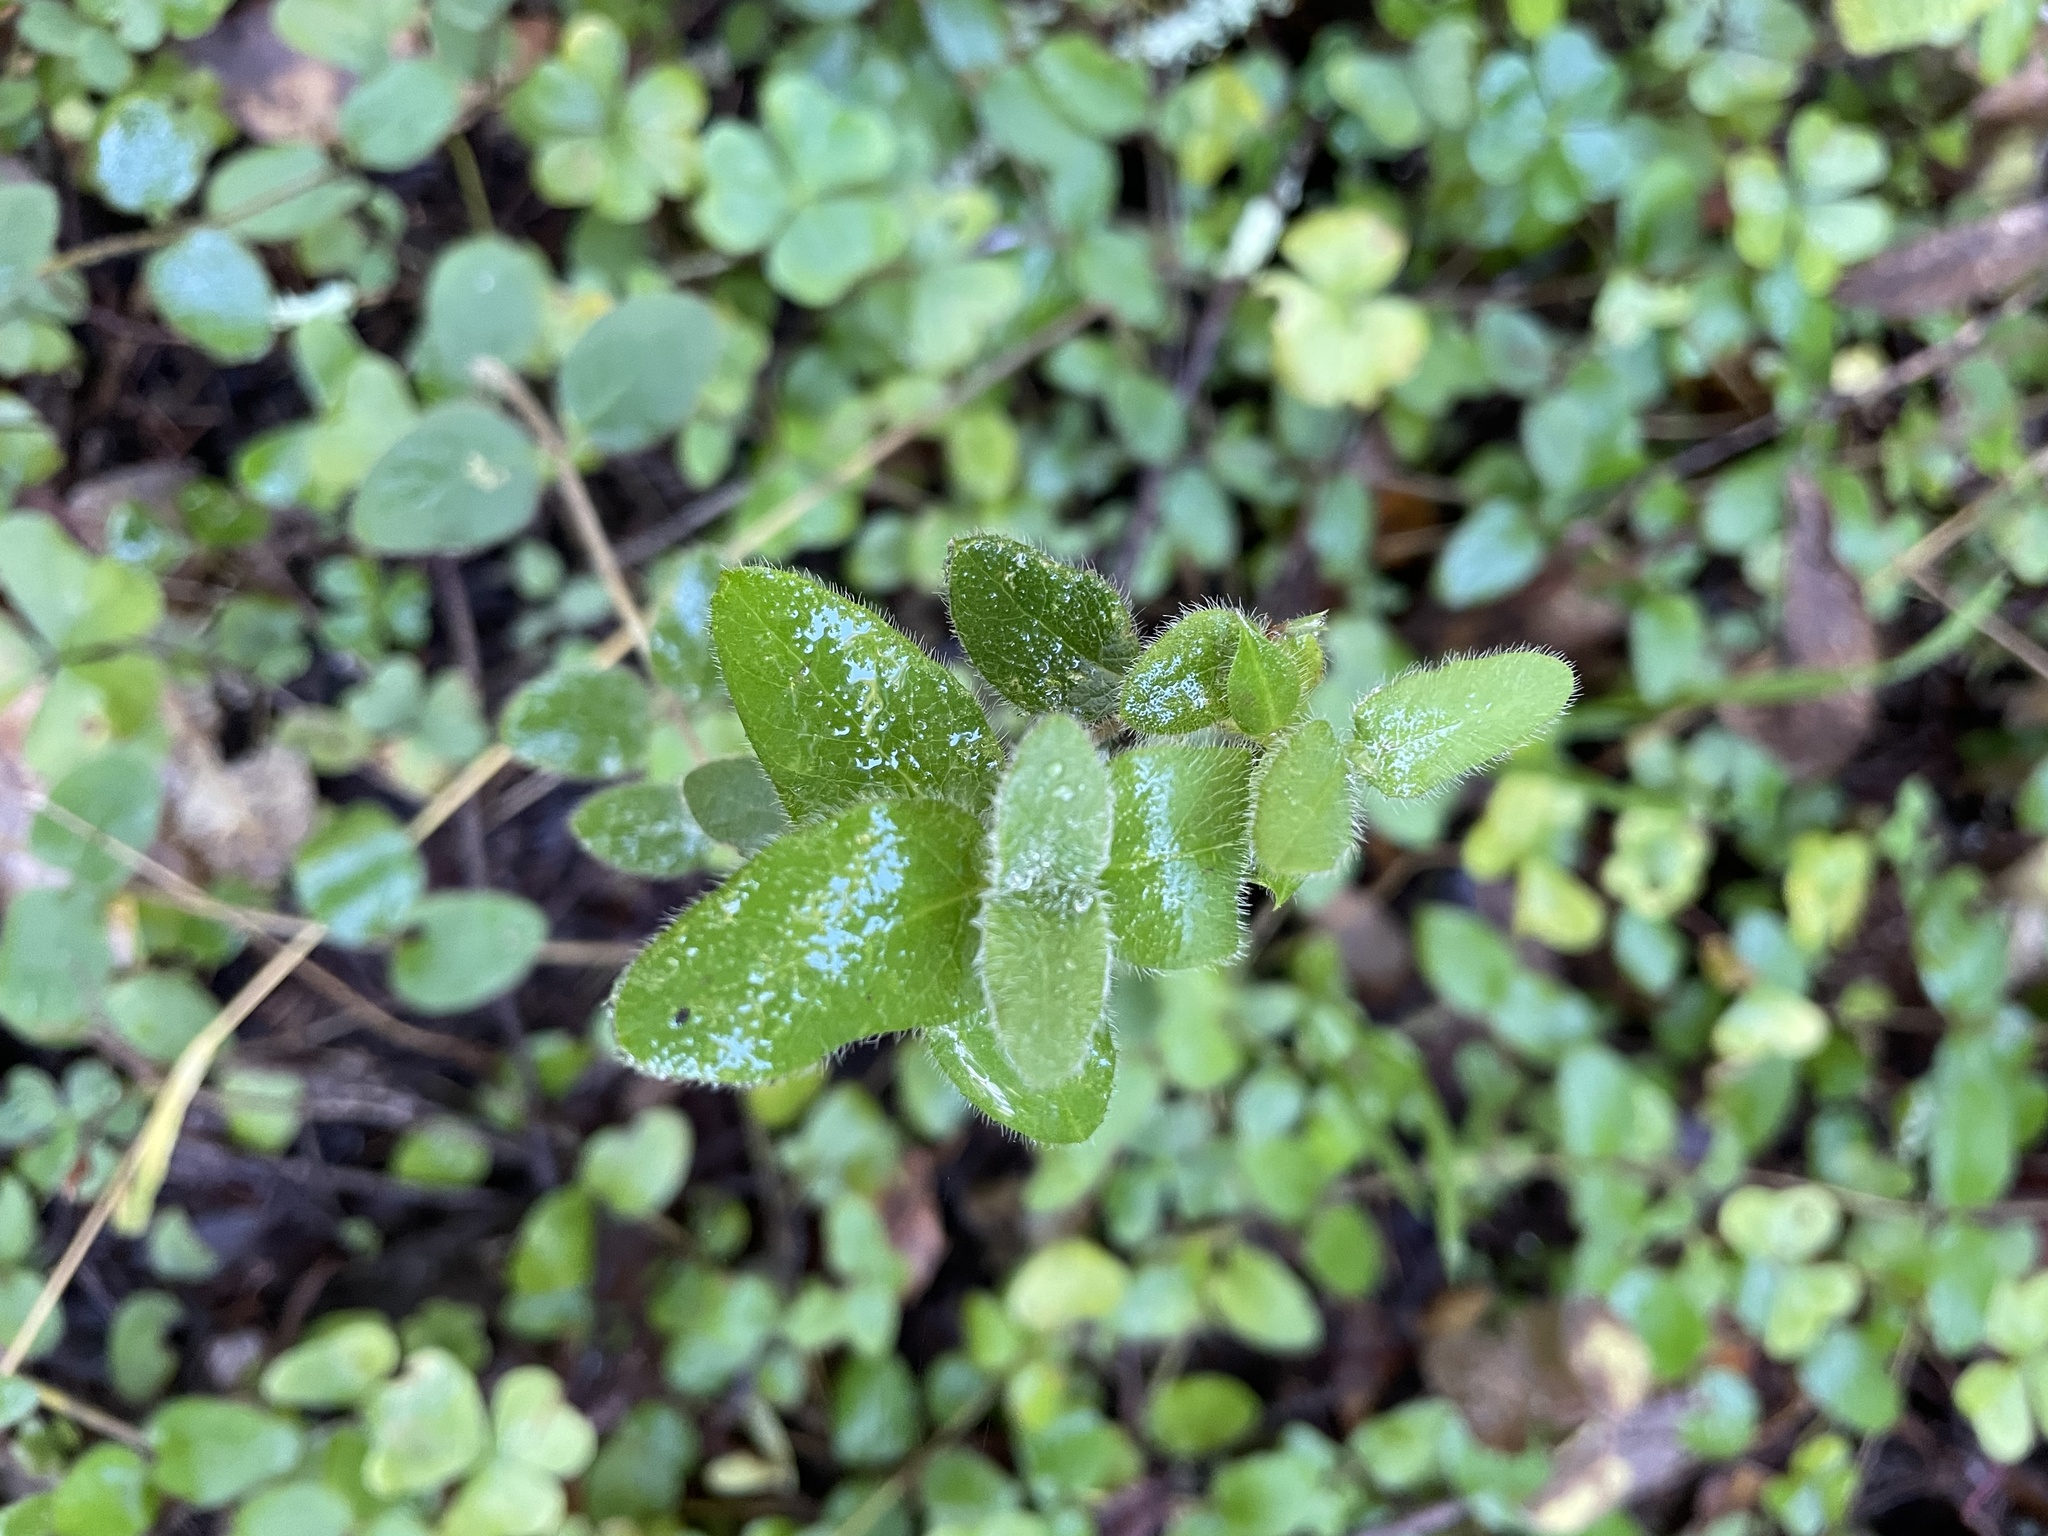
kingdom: Plantae
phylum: Tracheophyta
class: Magnoliopsida
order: Dipsacales
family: Caprifoliaceae
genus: Lonicera
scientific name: Lonicera hispidula
